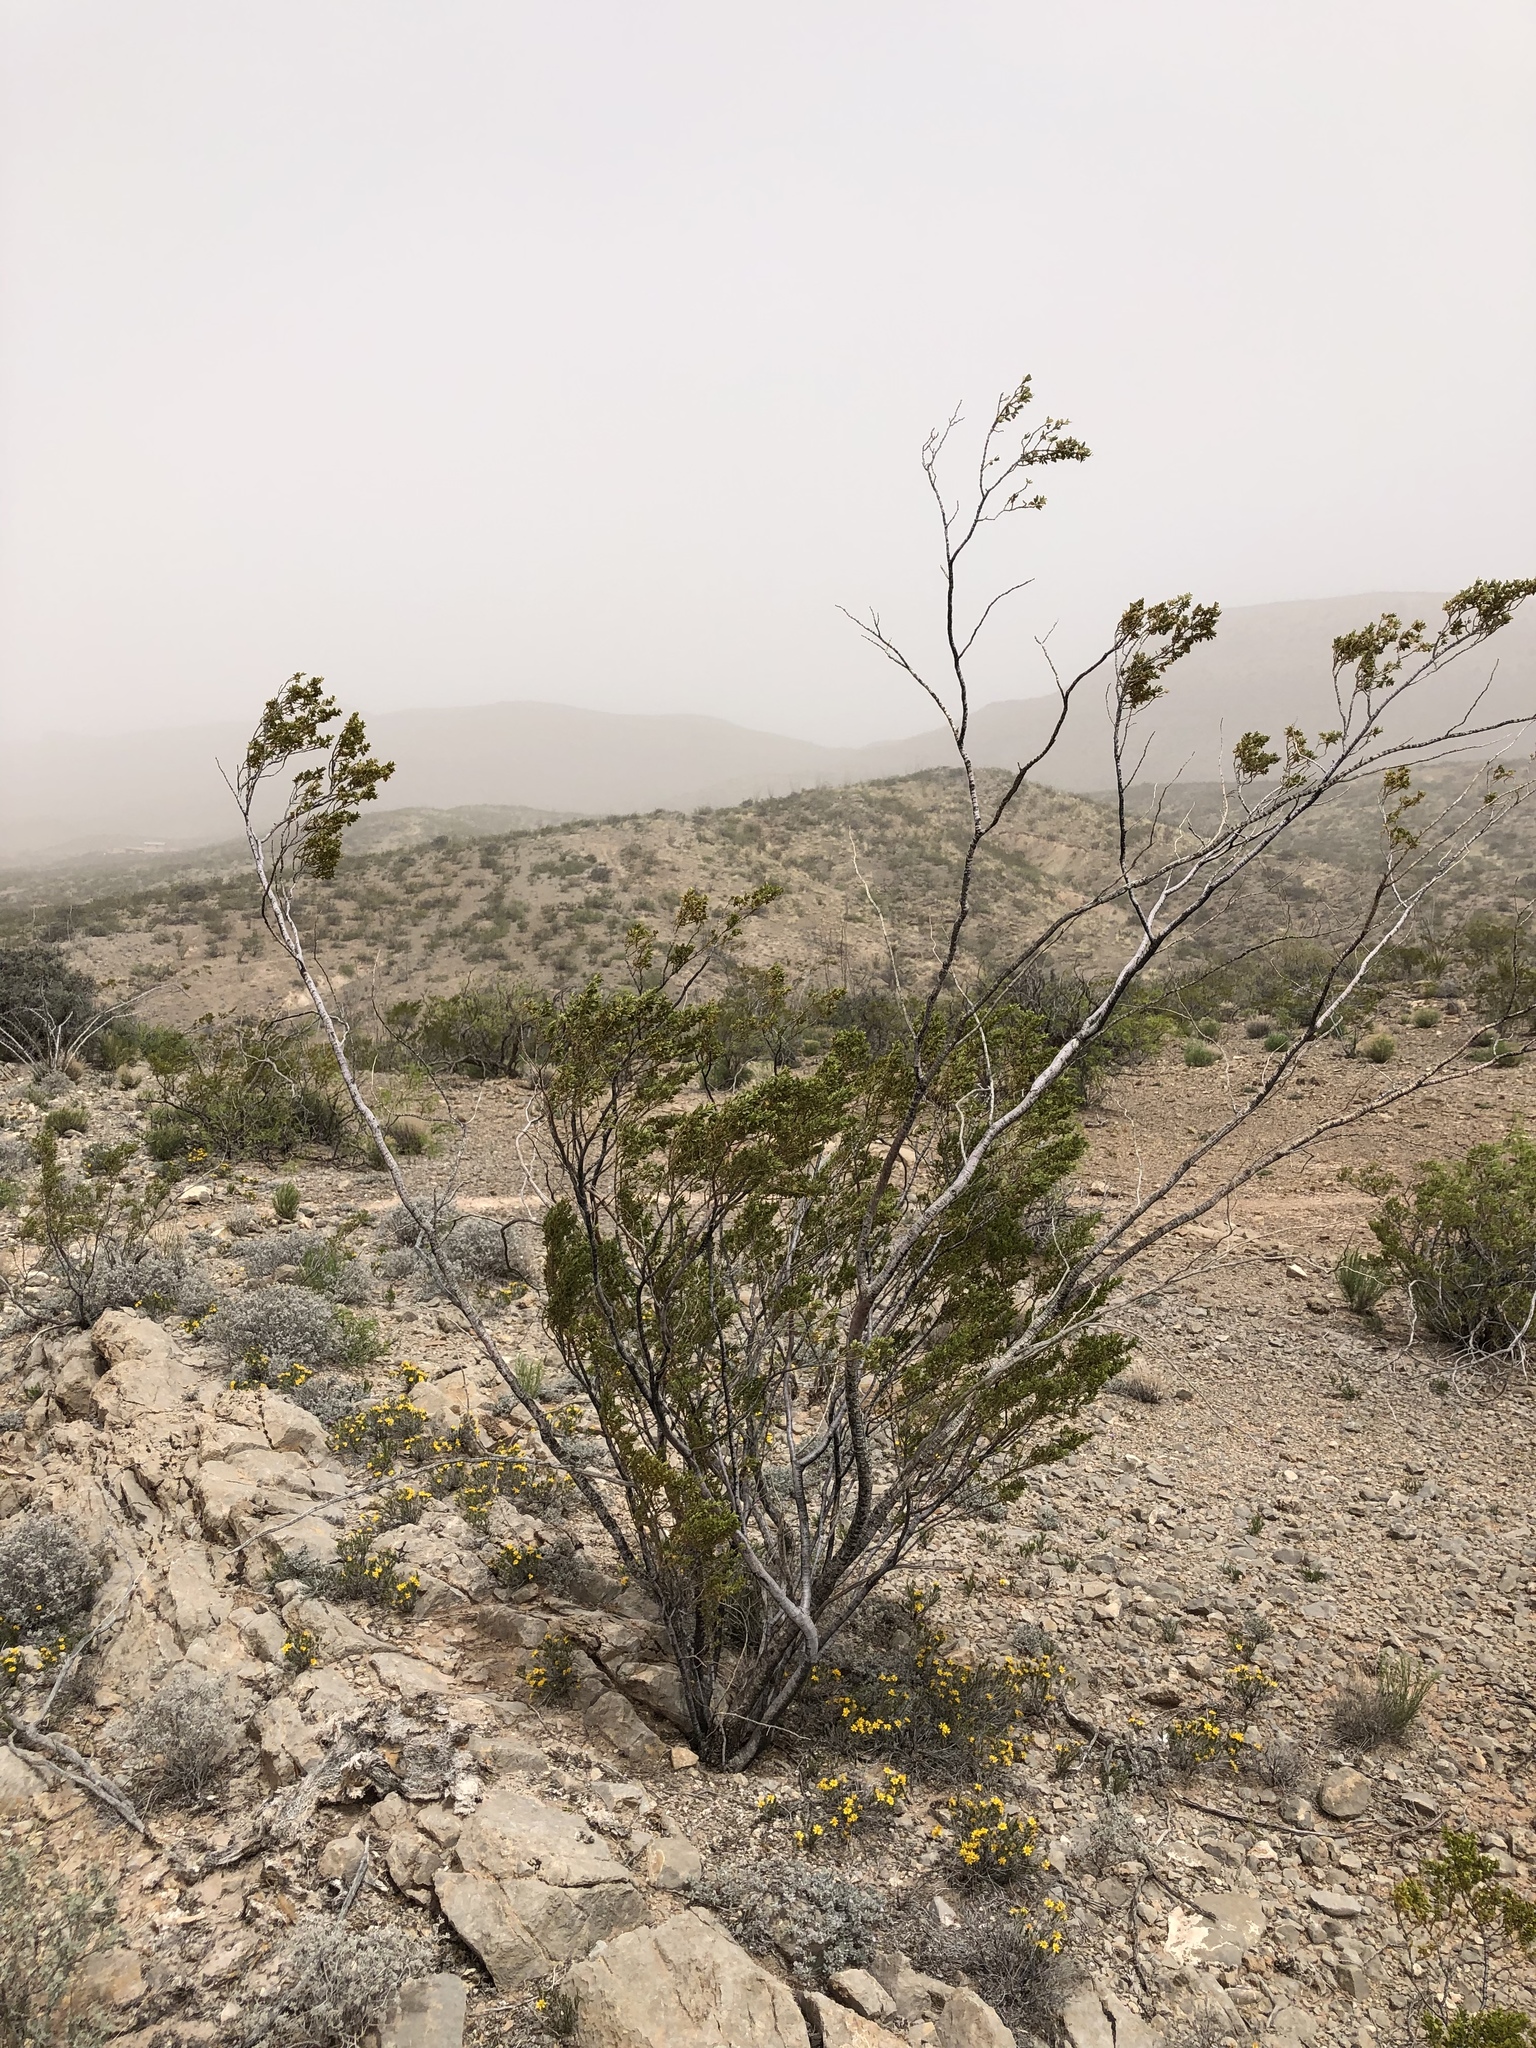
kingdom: Plantae
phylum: Tracheophyta
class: Magnoliopsida
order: Zygophyllales
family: Zygophyllaceae
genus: Larrea
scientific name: Larrea tridentata
